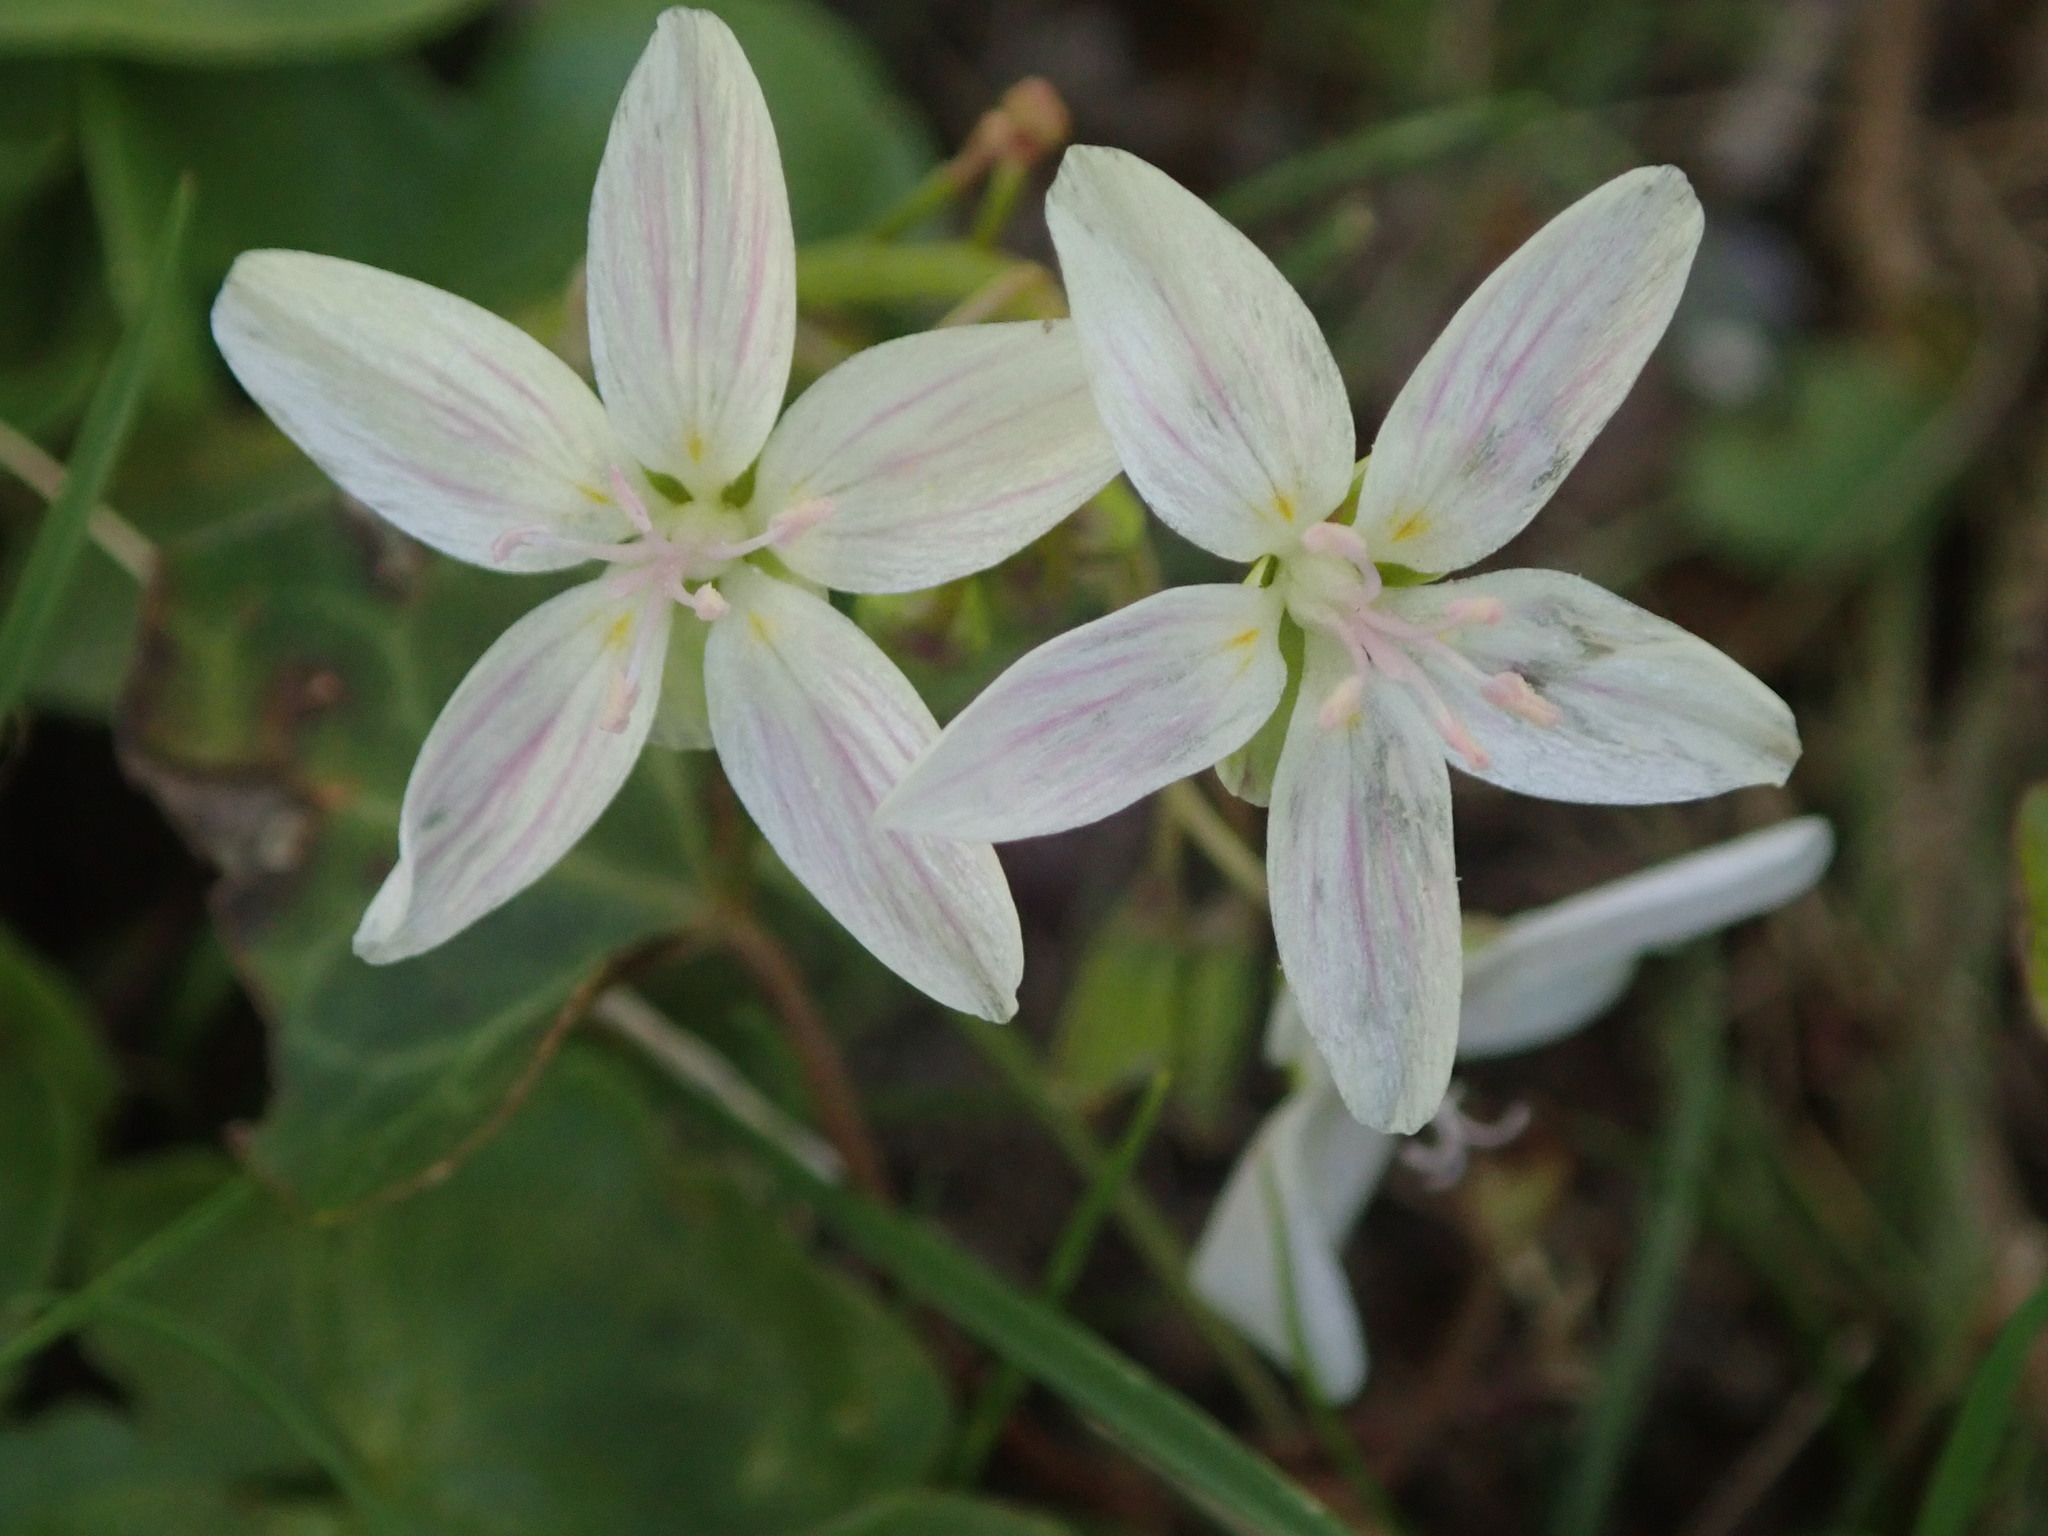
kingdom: Plantae
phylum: Tracheophyta
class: Magnoliopsida
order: Caryophyllales
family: Montiaceae
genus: Claytonia
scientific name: Claytonia virginica
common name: Virginia springbeauty
